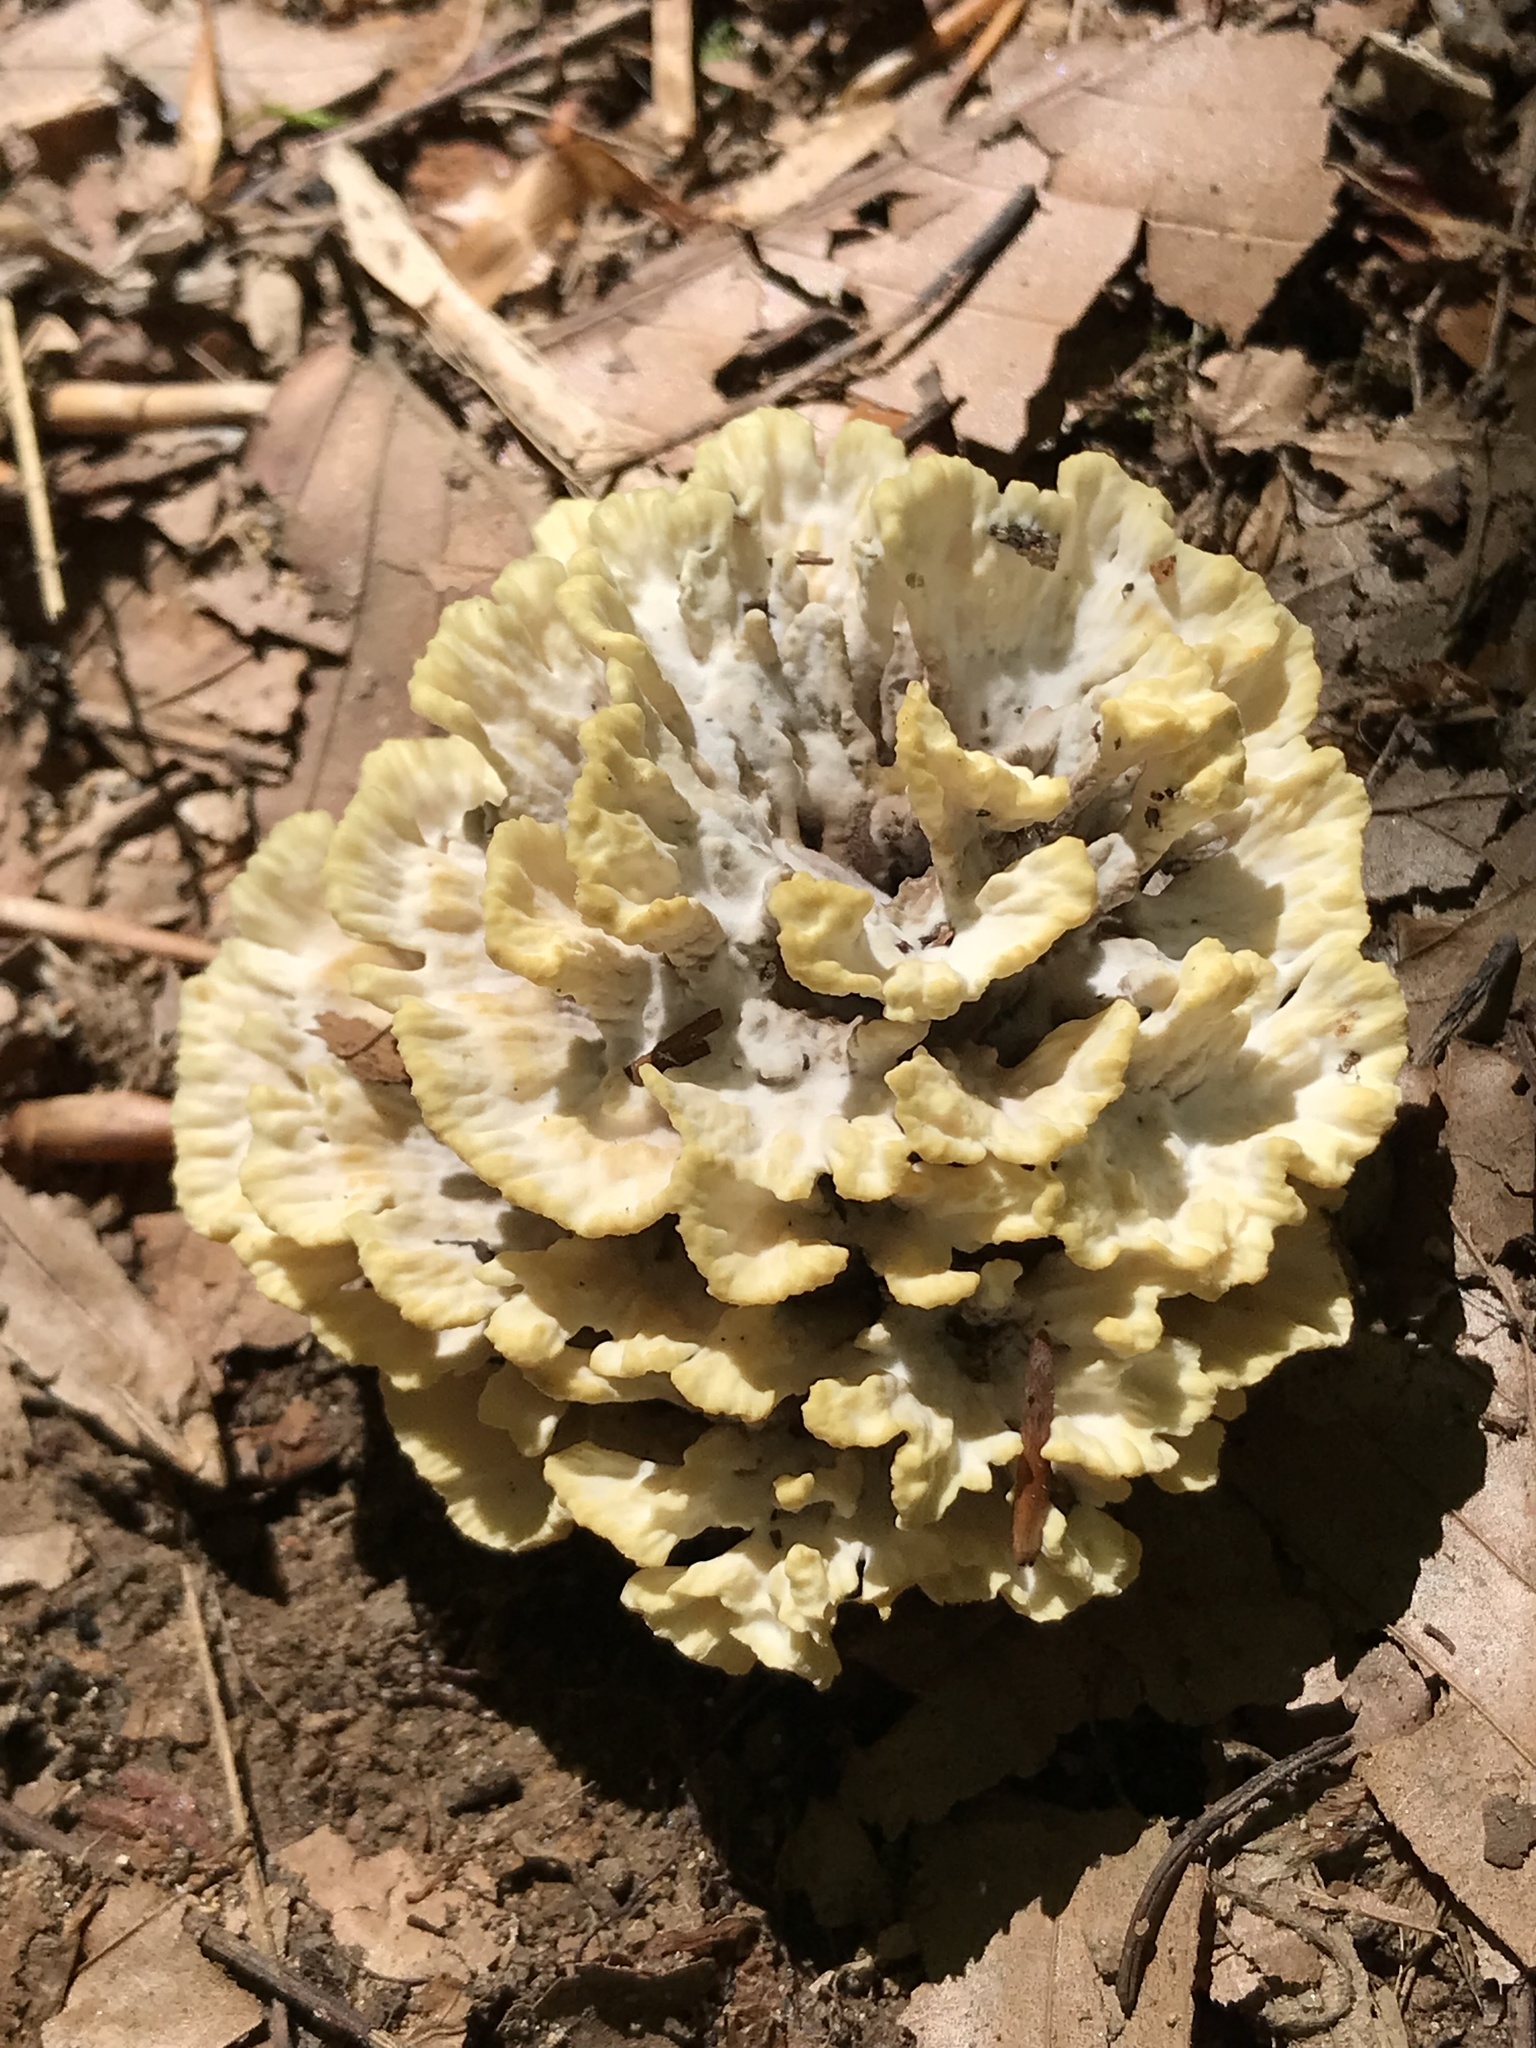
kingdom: Fungi
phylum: Basidiomycota
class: Agaricomycetes
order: Thelephorales
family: Thelephoraceae
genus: Thelephora
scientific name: Thelephora vialis
